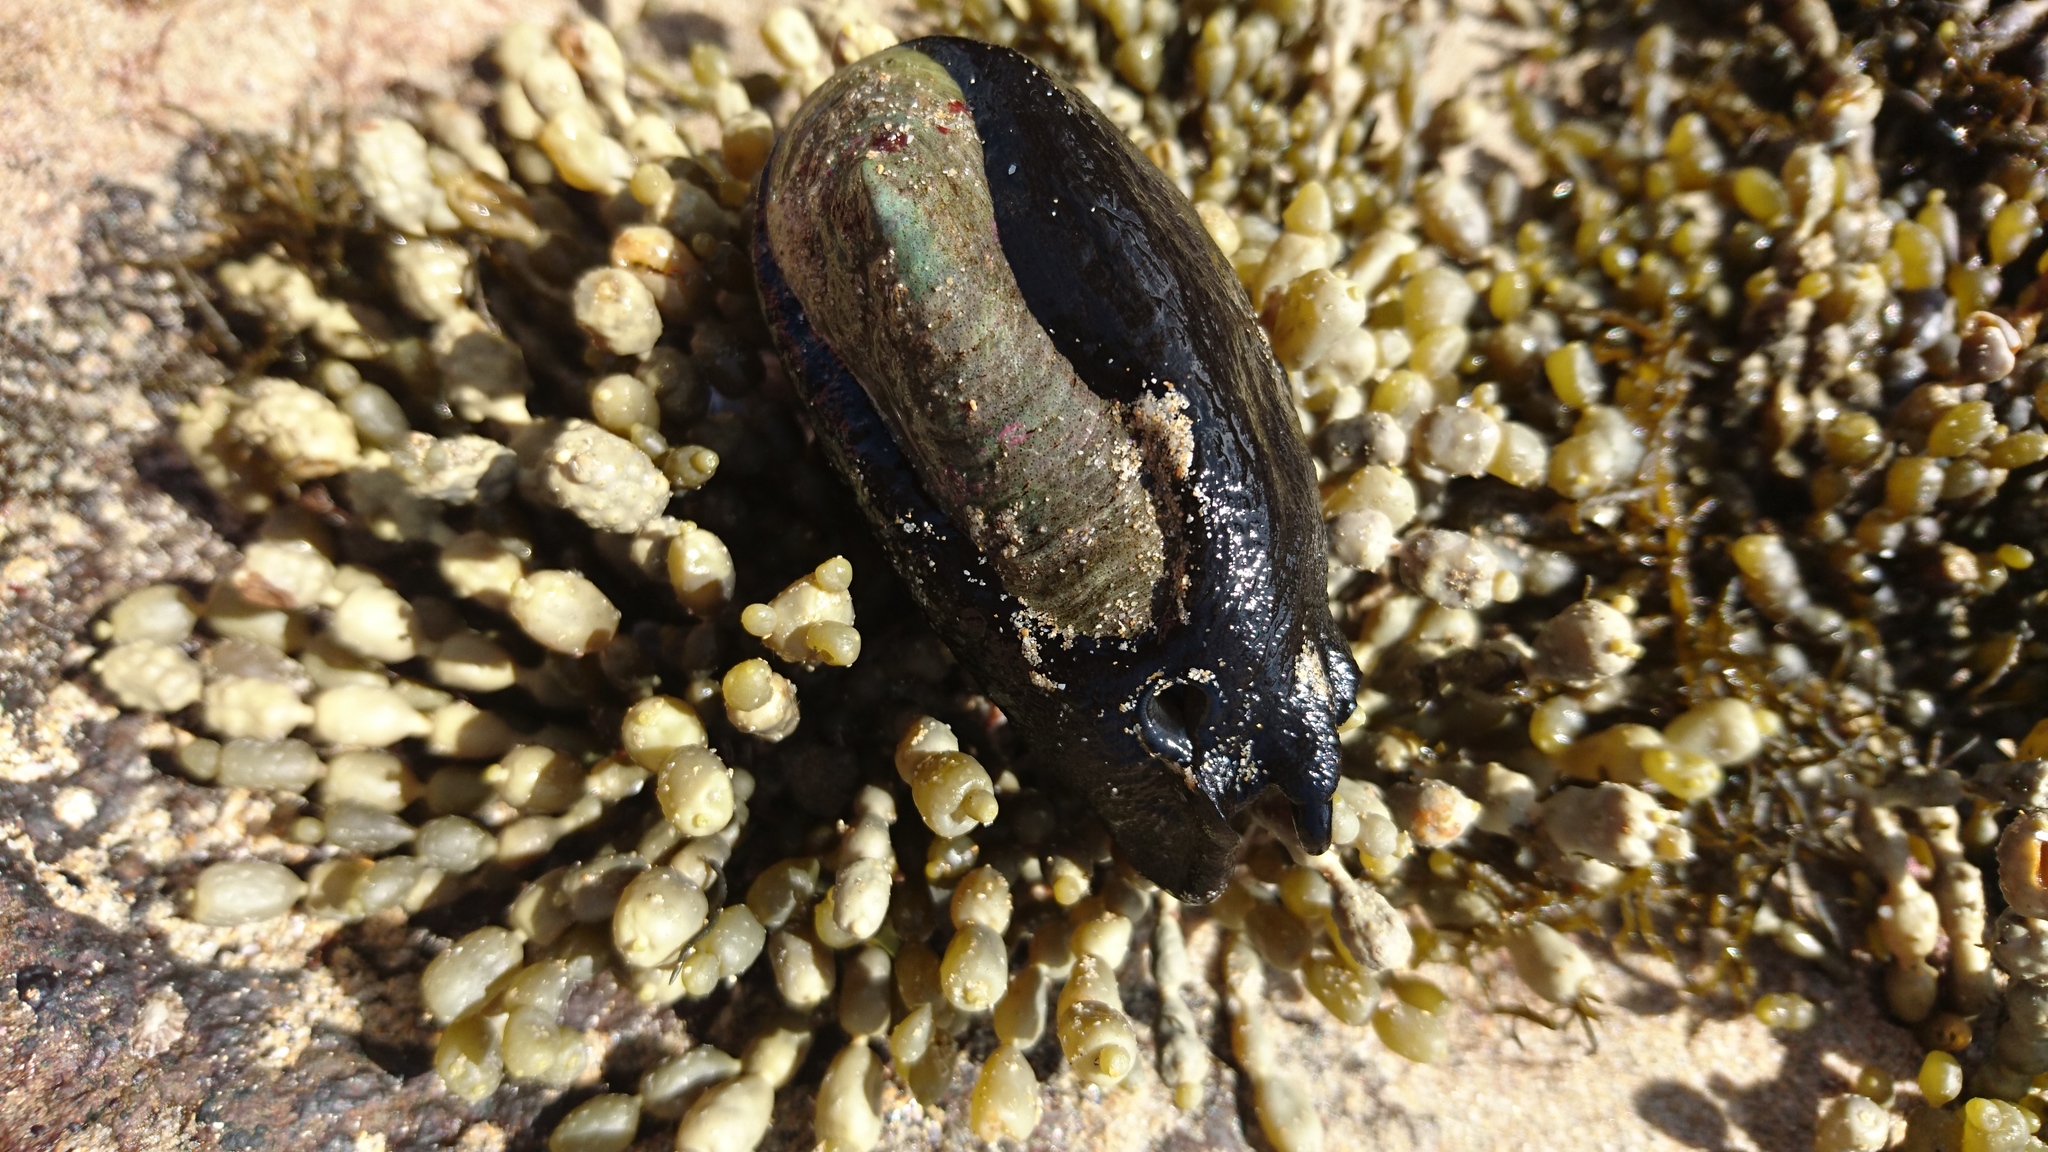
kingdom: Animalia
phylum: Mollusca
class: Gastropoda
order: Lepetellida
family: Fissurellidae
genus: Scutus
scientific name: Scutus antipodes
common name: Duckbill shell
